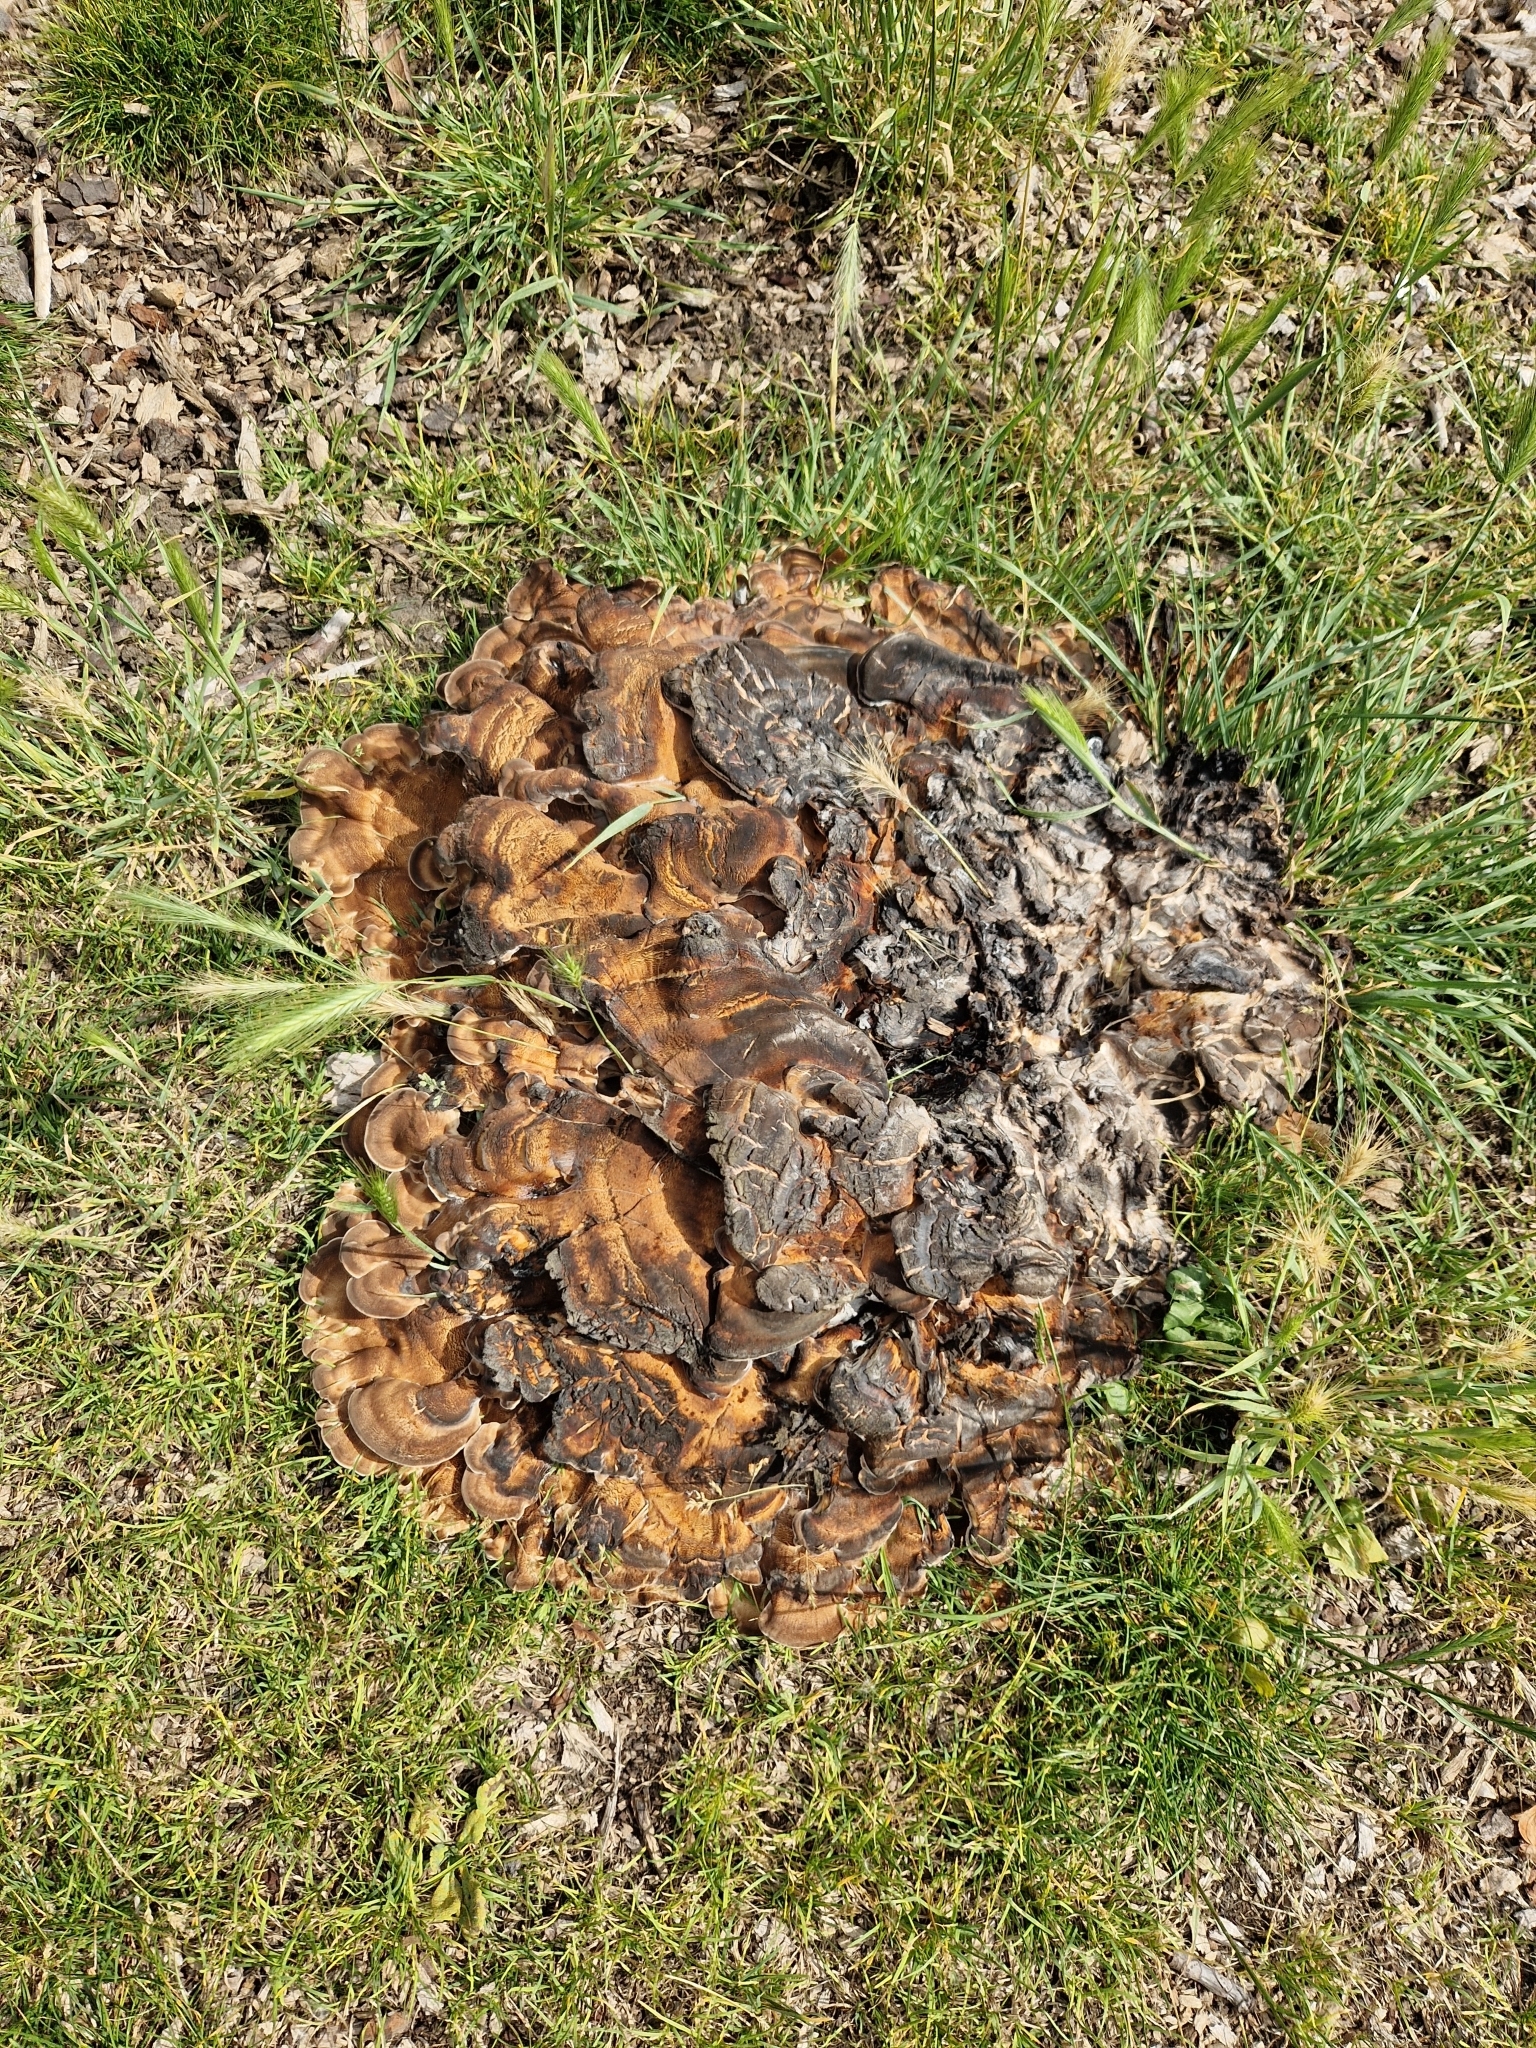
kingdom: Fungi
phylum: Basidiomycota
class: Agaricomycetes
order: Polyporales
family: Meripilaceae
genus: Meripilus
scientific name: Meripilus giganteus
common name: Giant polypore
